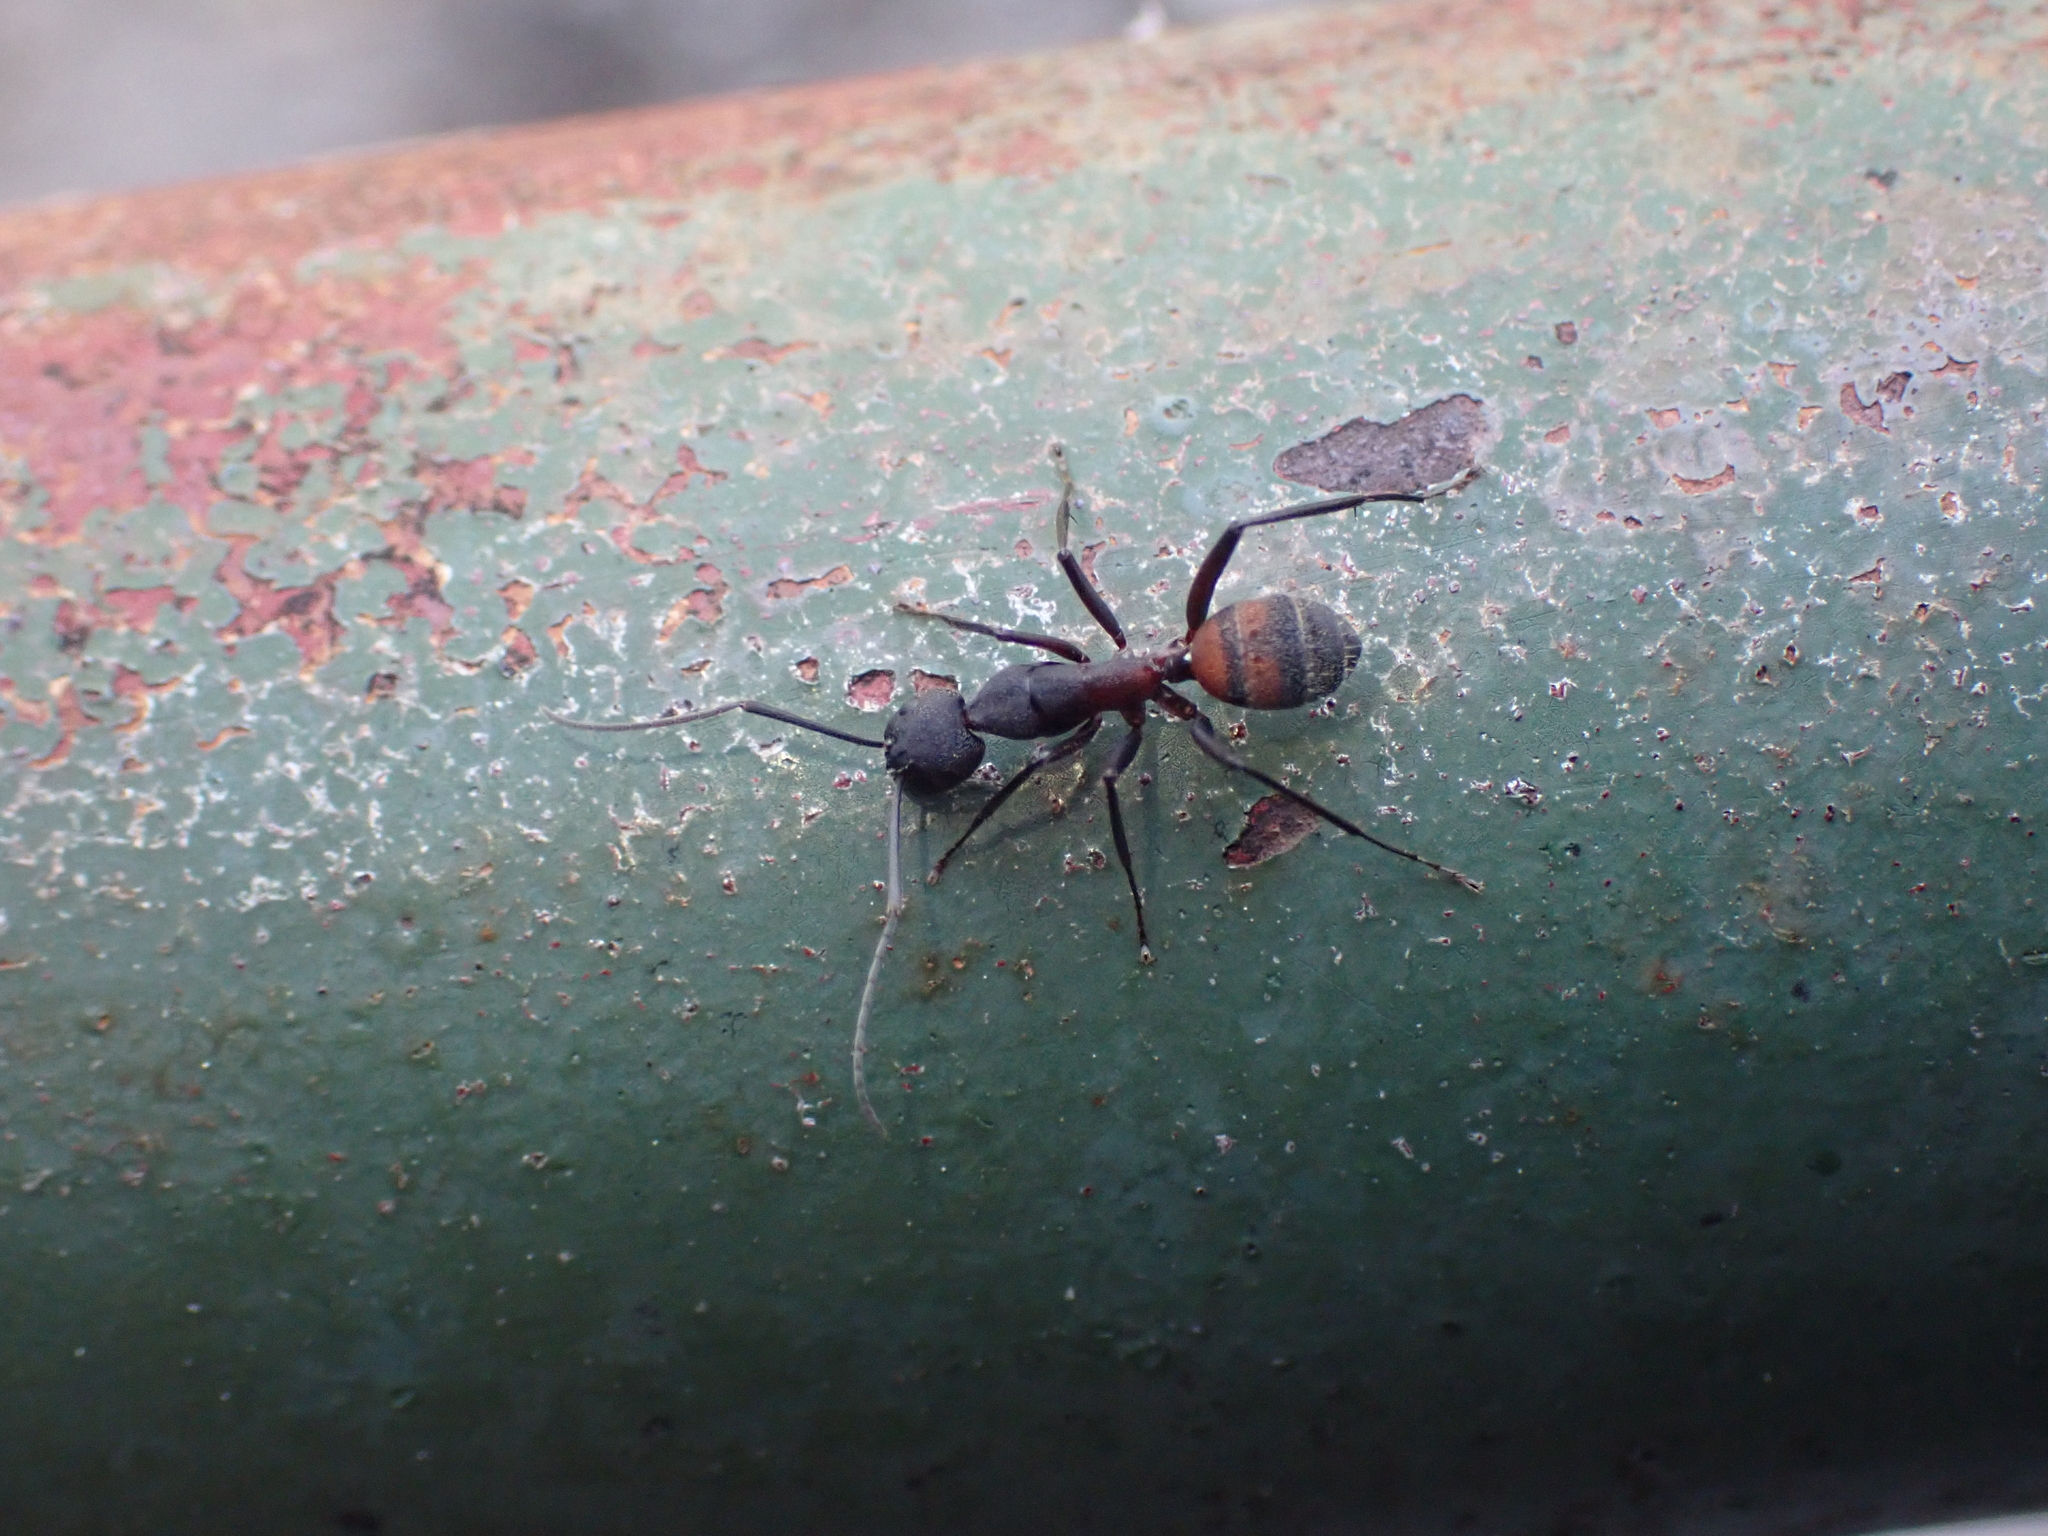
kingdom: Animalia
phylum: Arthropoda
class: Insecta
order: Hymenoptera
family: Formicidae
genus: Camponotus
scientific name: Camponotus cruentatus
